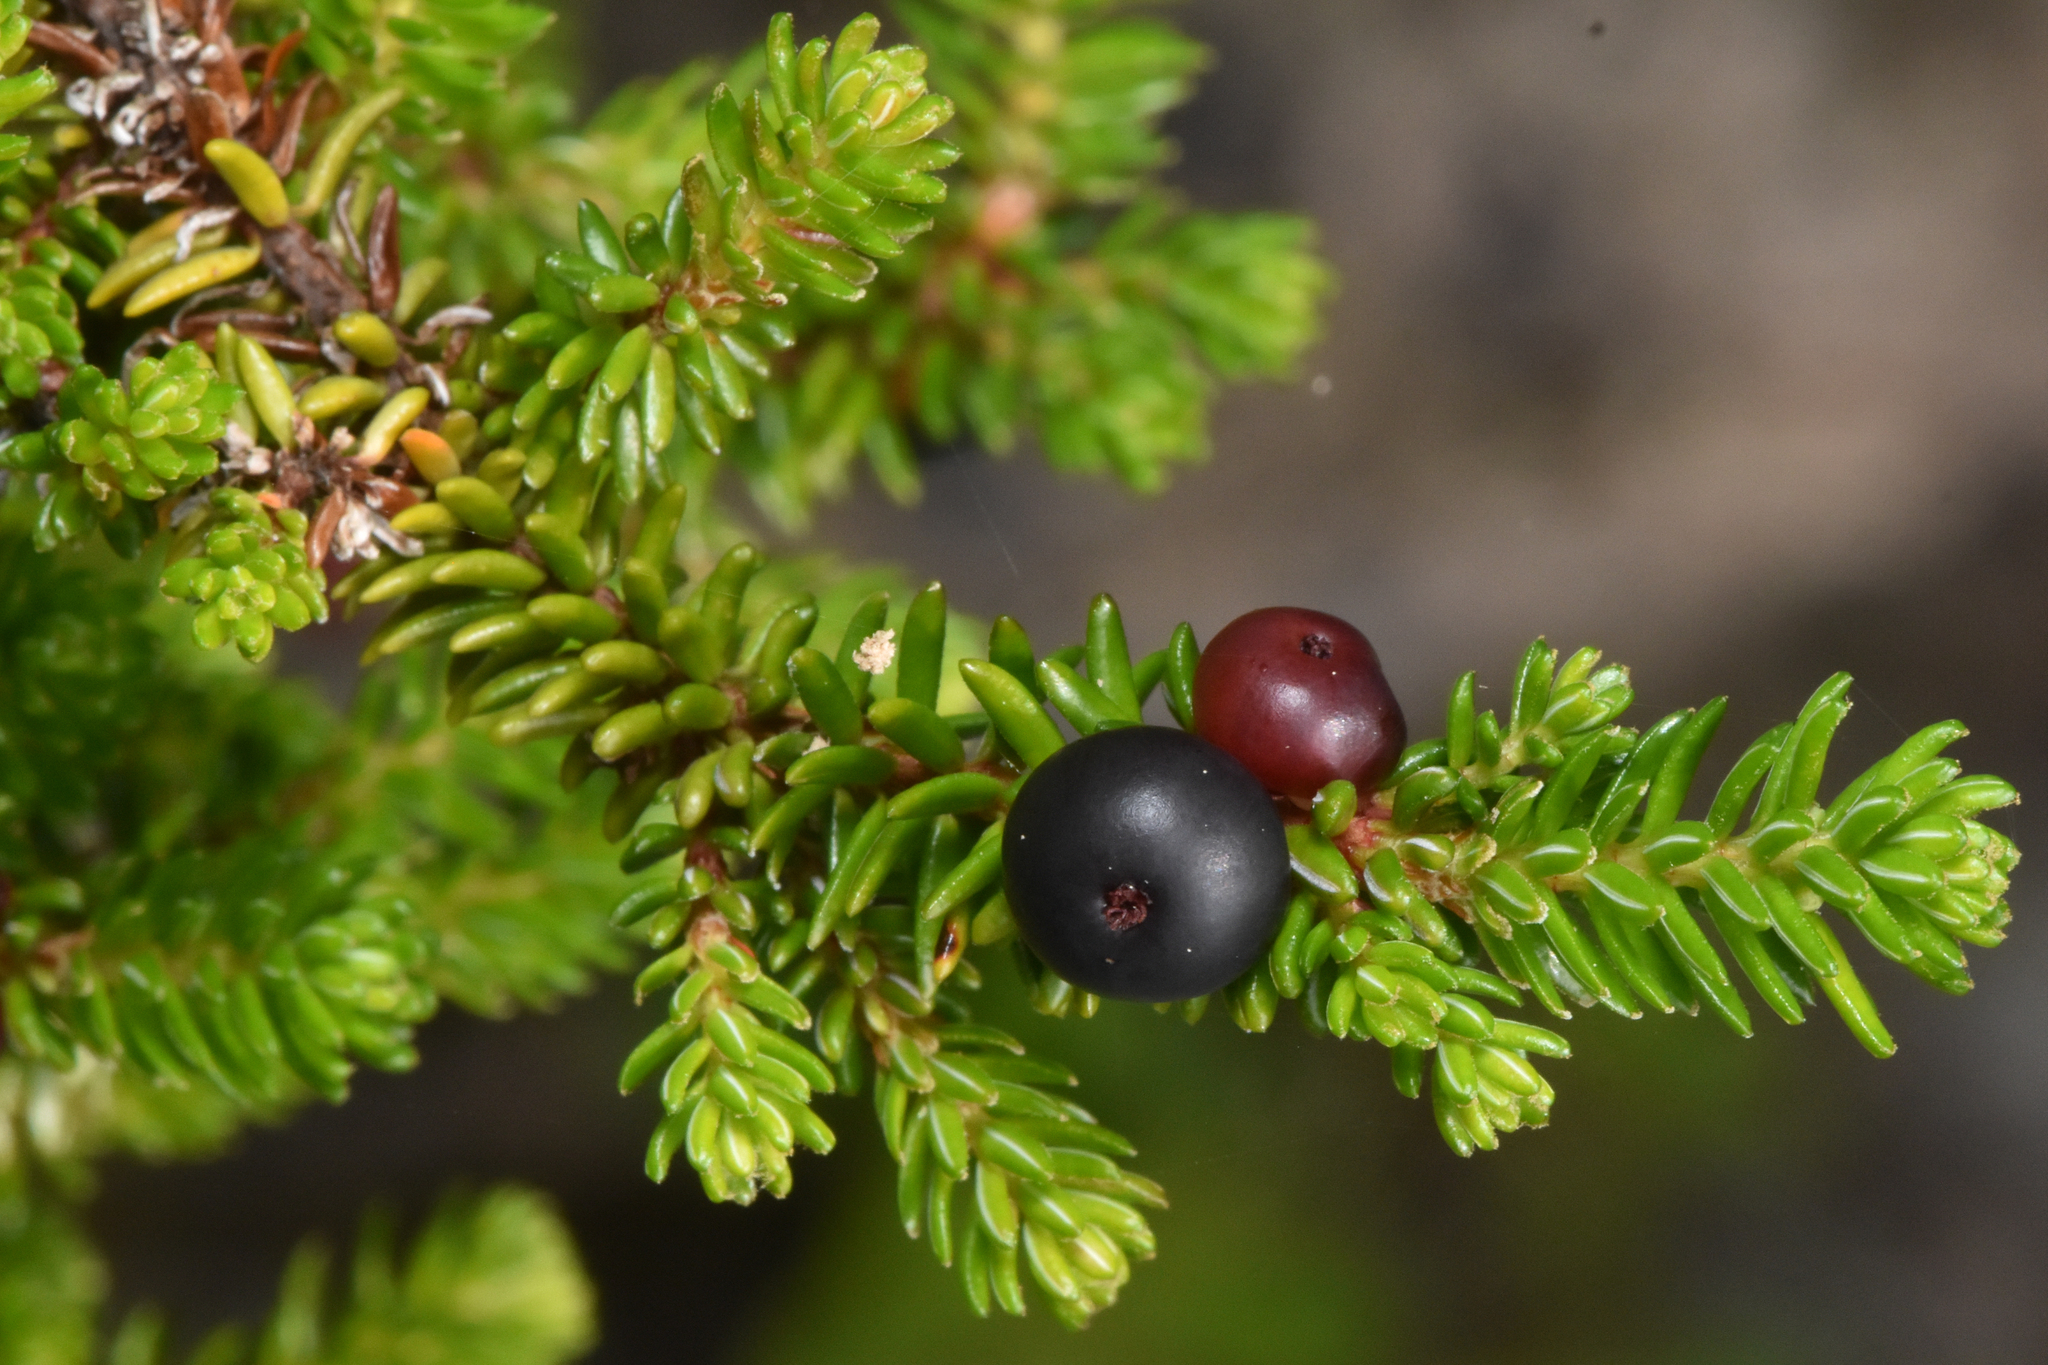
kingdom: Plantae
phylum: Tracheophyta
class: Magnoliopsida
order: Ericales
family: Ericaceae
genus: Empetrum
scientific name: Empetrum nigrum
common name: Black crowberry
